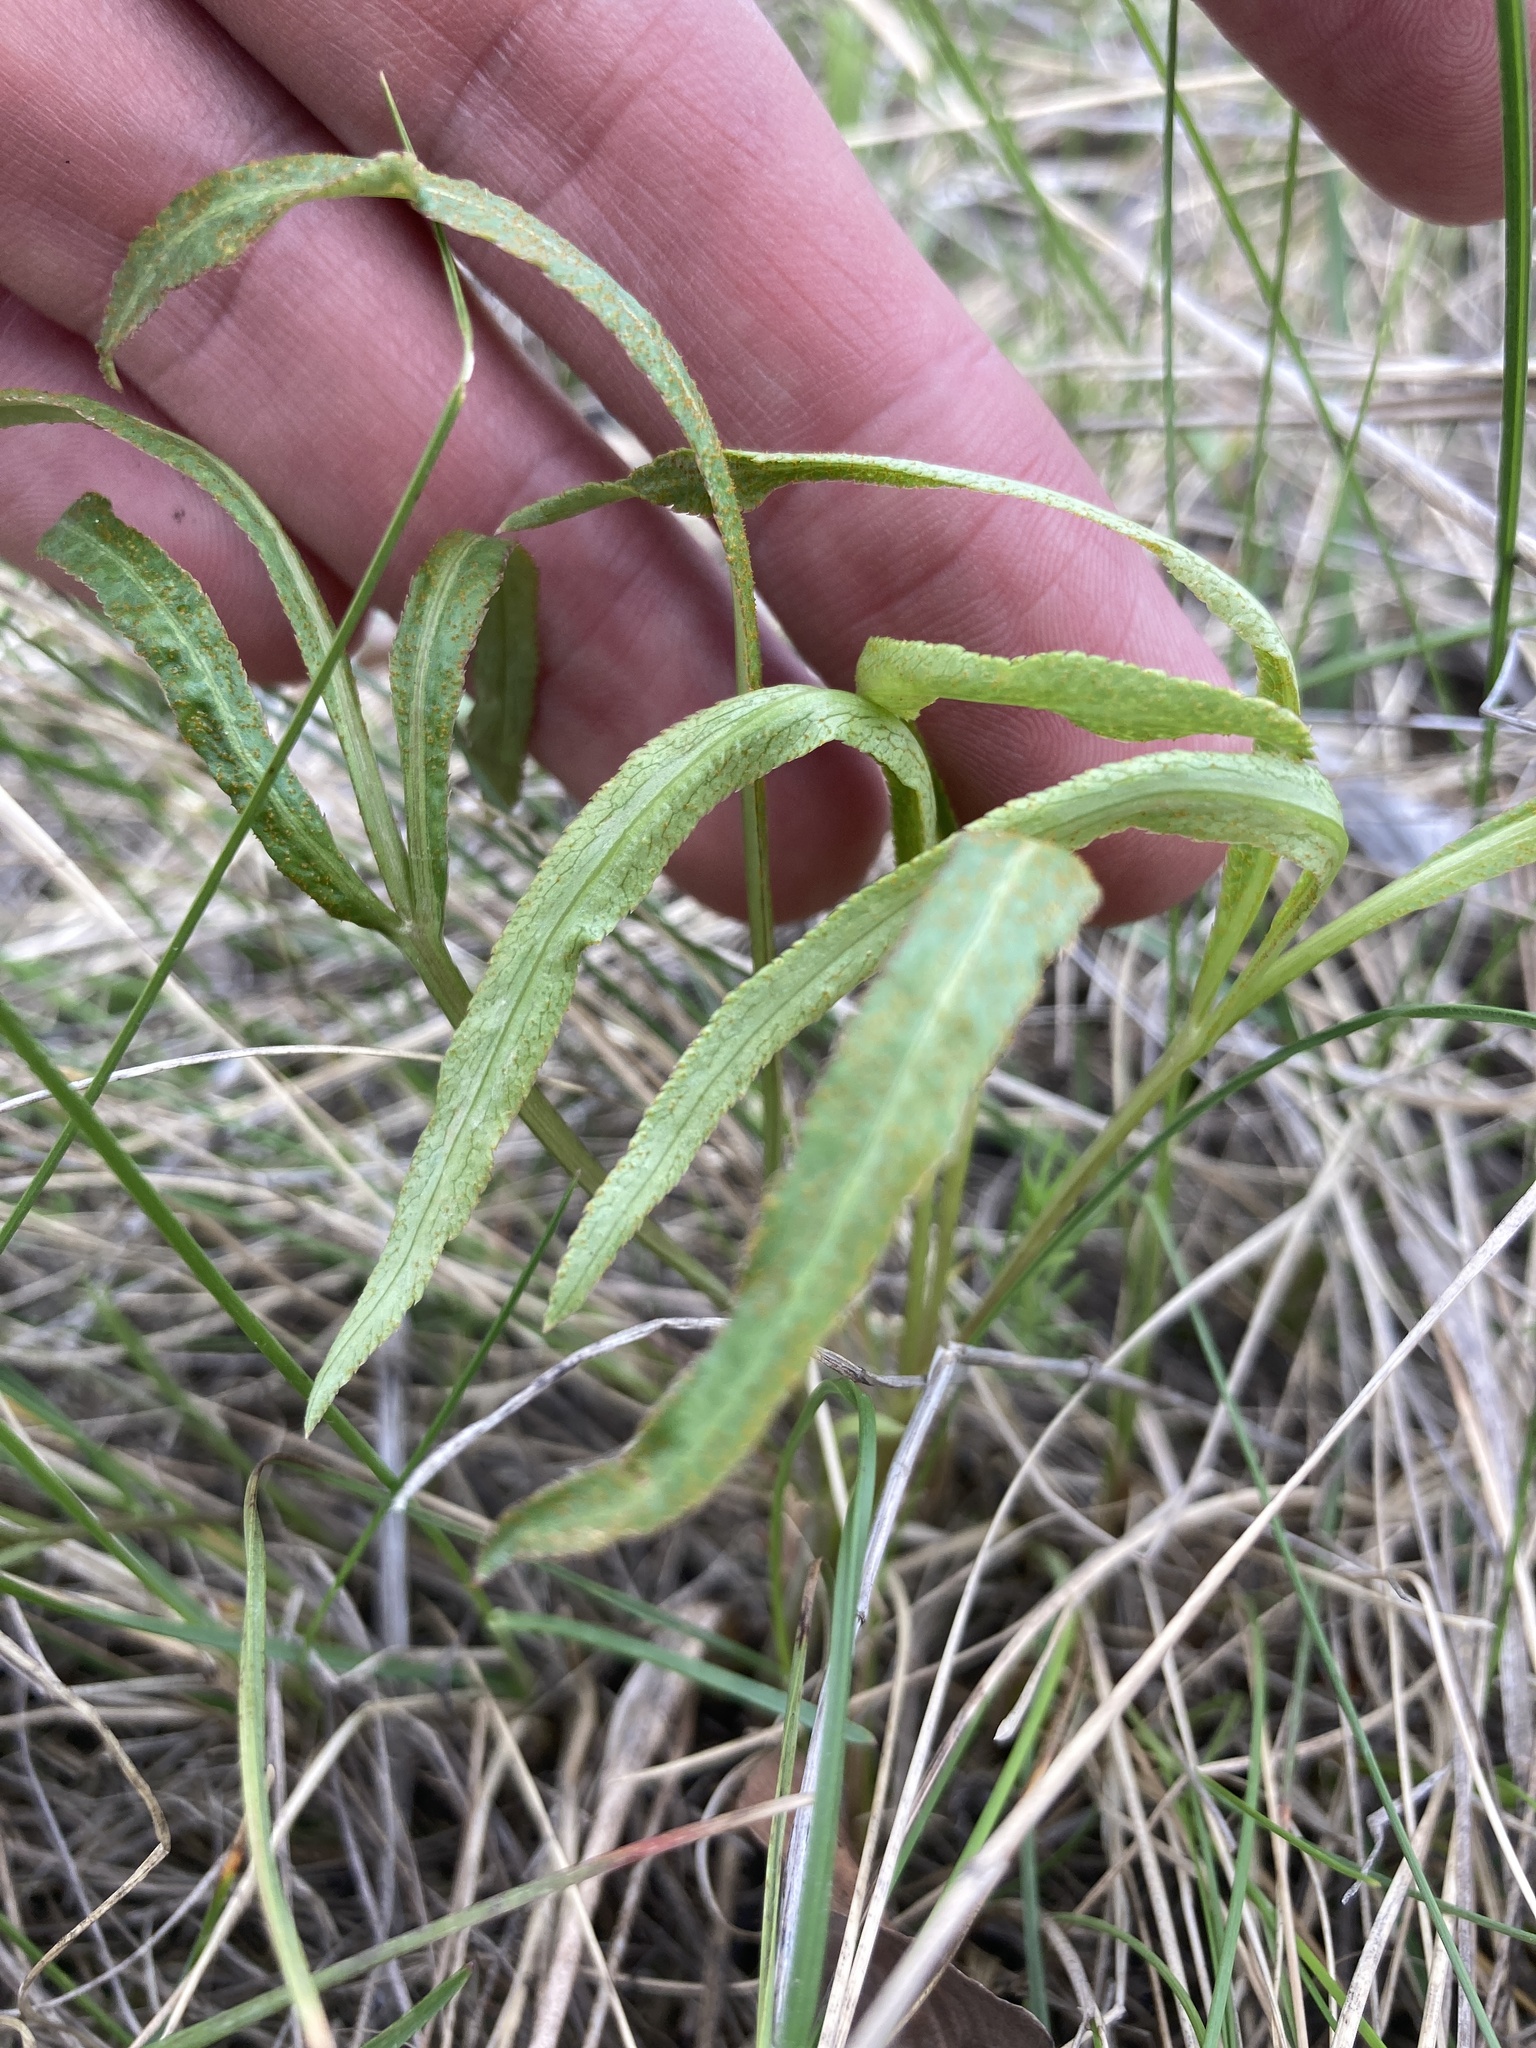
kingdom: Plantae
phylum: Tracheophyta
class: Magnoliopsida
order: Apiales
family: Apiaceae
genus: Falcaria
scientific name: Falcaria vulgaris
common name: Longleaf
